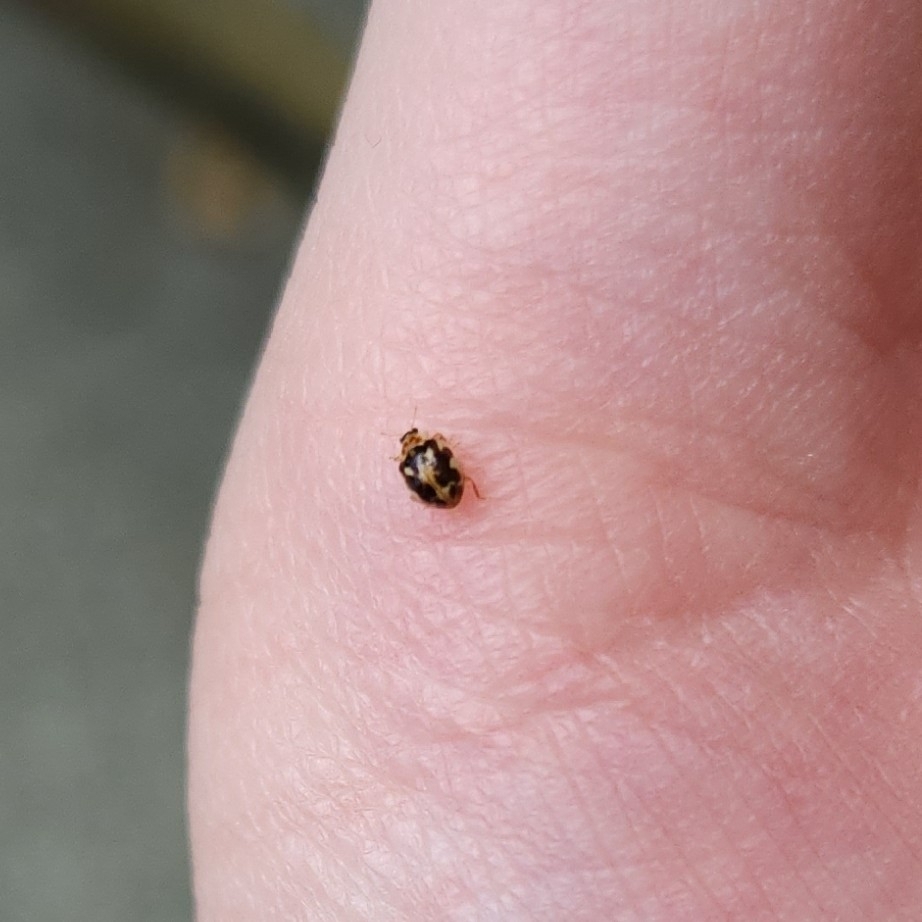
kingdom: Animalia
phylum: Arthropoda
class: Insecta
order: Coleoptera
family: Coccinellidae
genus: Psyllobora
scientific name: Psyllobora vigintimaculata
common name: Ladybird beetle
